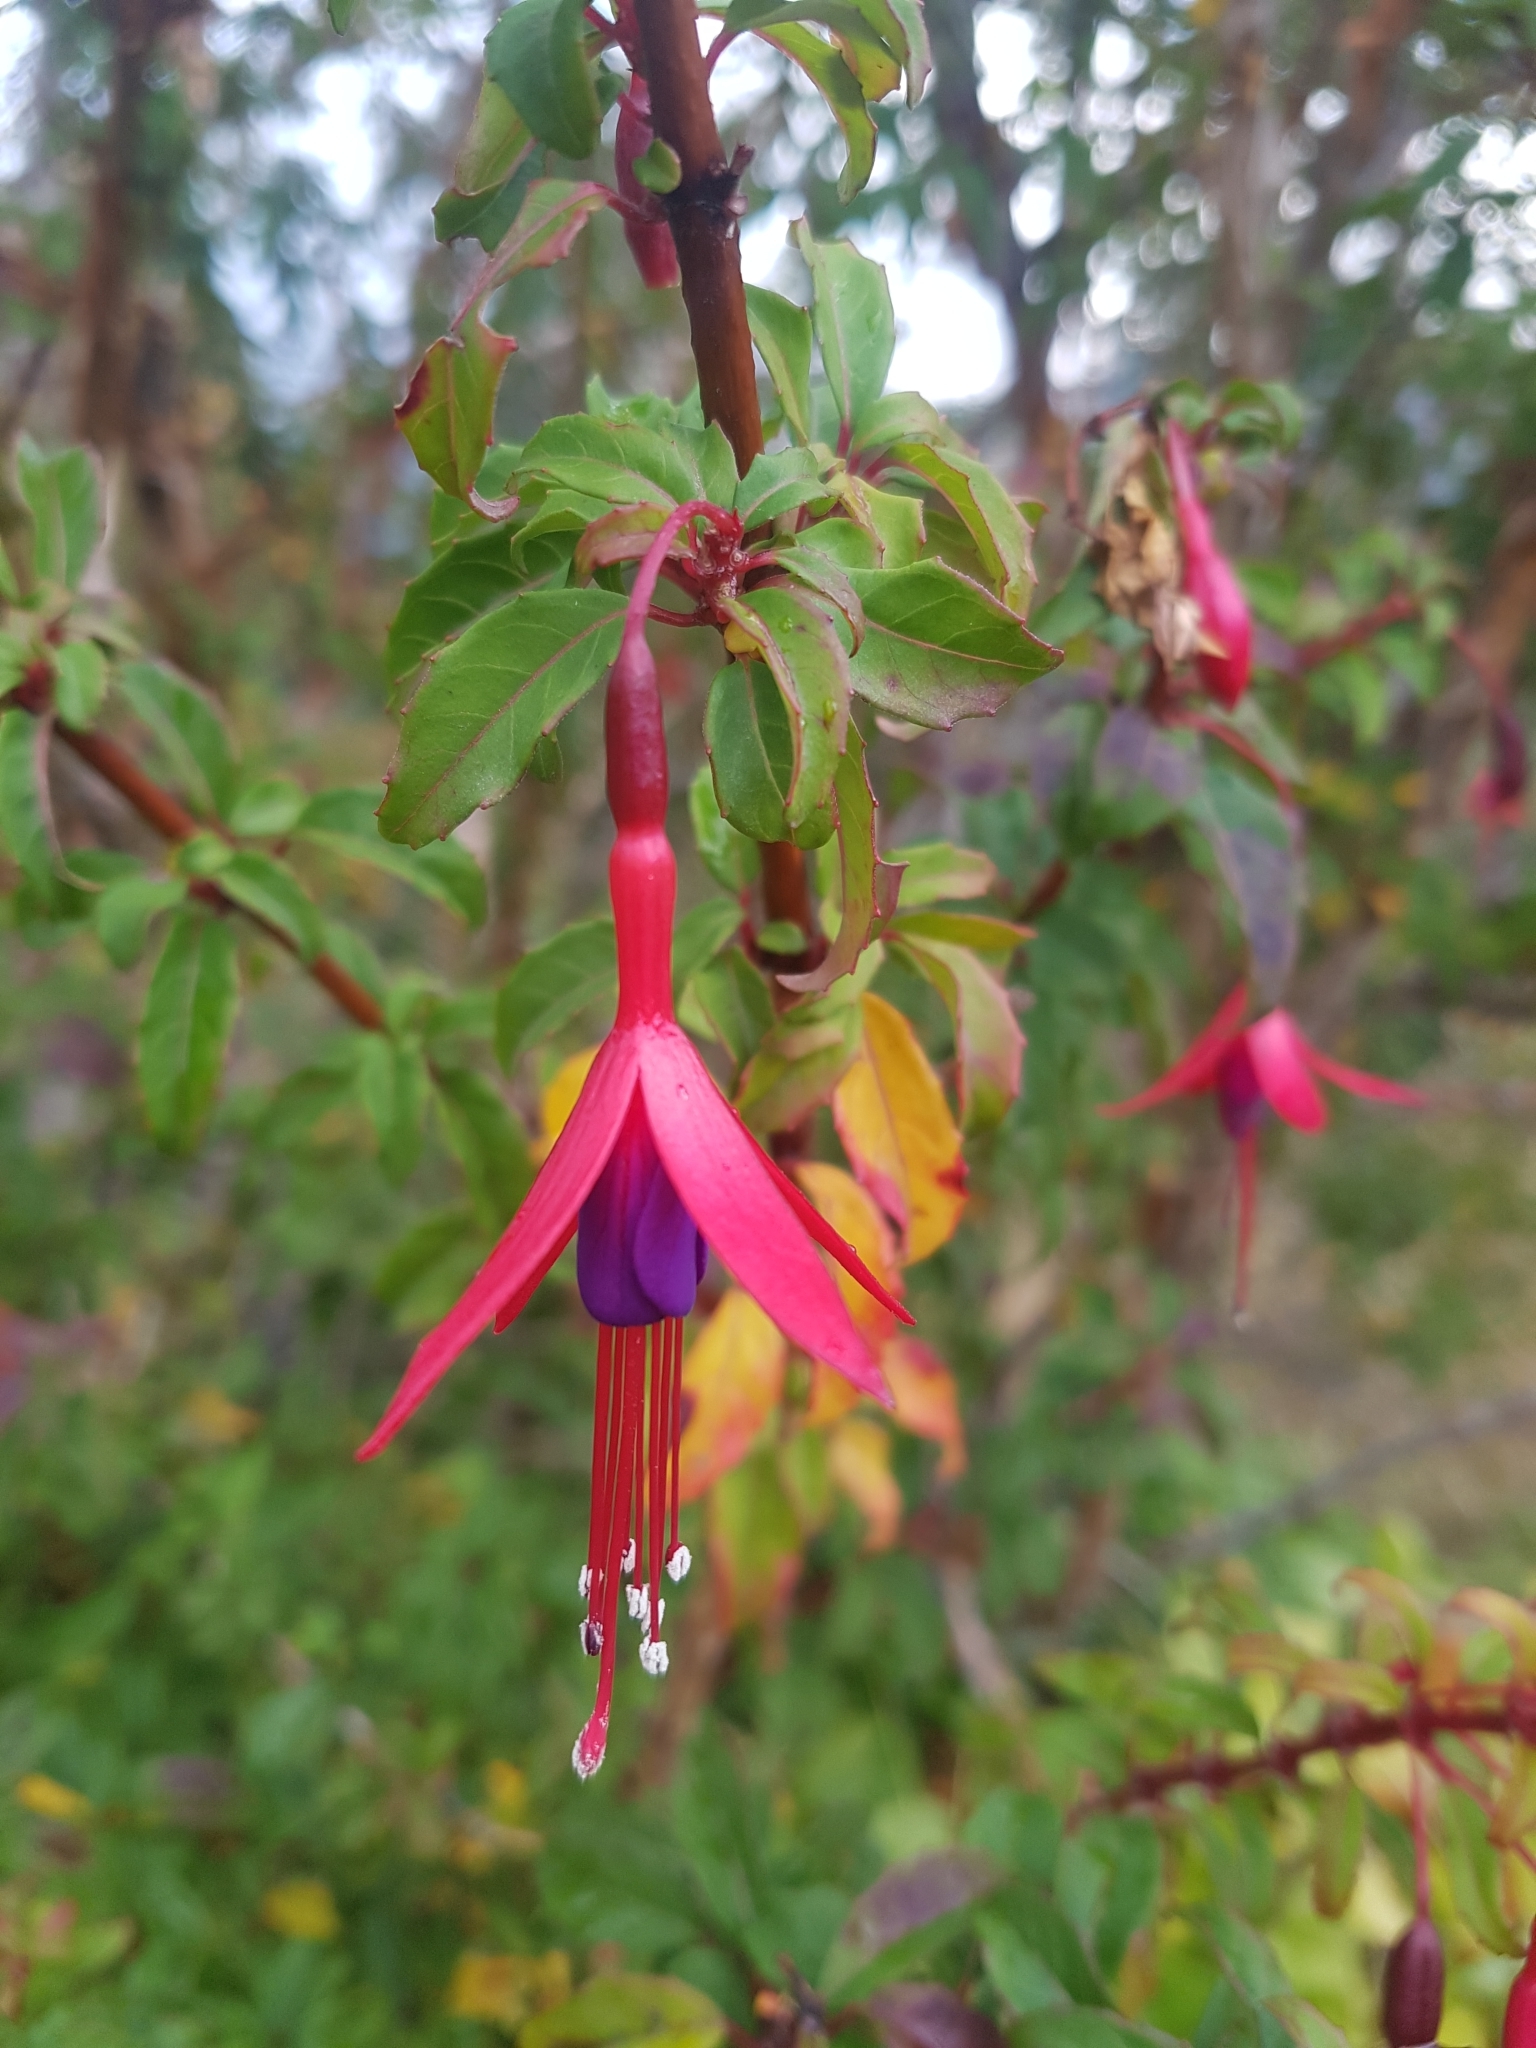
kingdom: Plantae
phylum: Tracheophyta
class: Magnoliopsida
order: Myrtales
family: Onagraceae
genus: Fuchsia
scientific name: Fuchsia magellanica
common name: Hardy fuchsia
